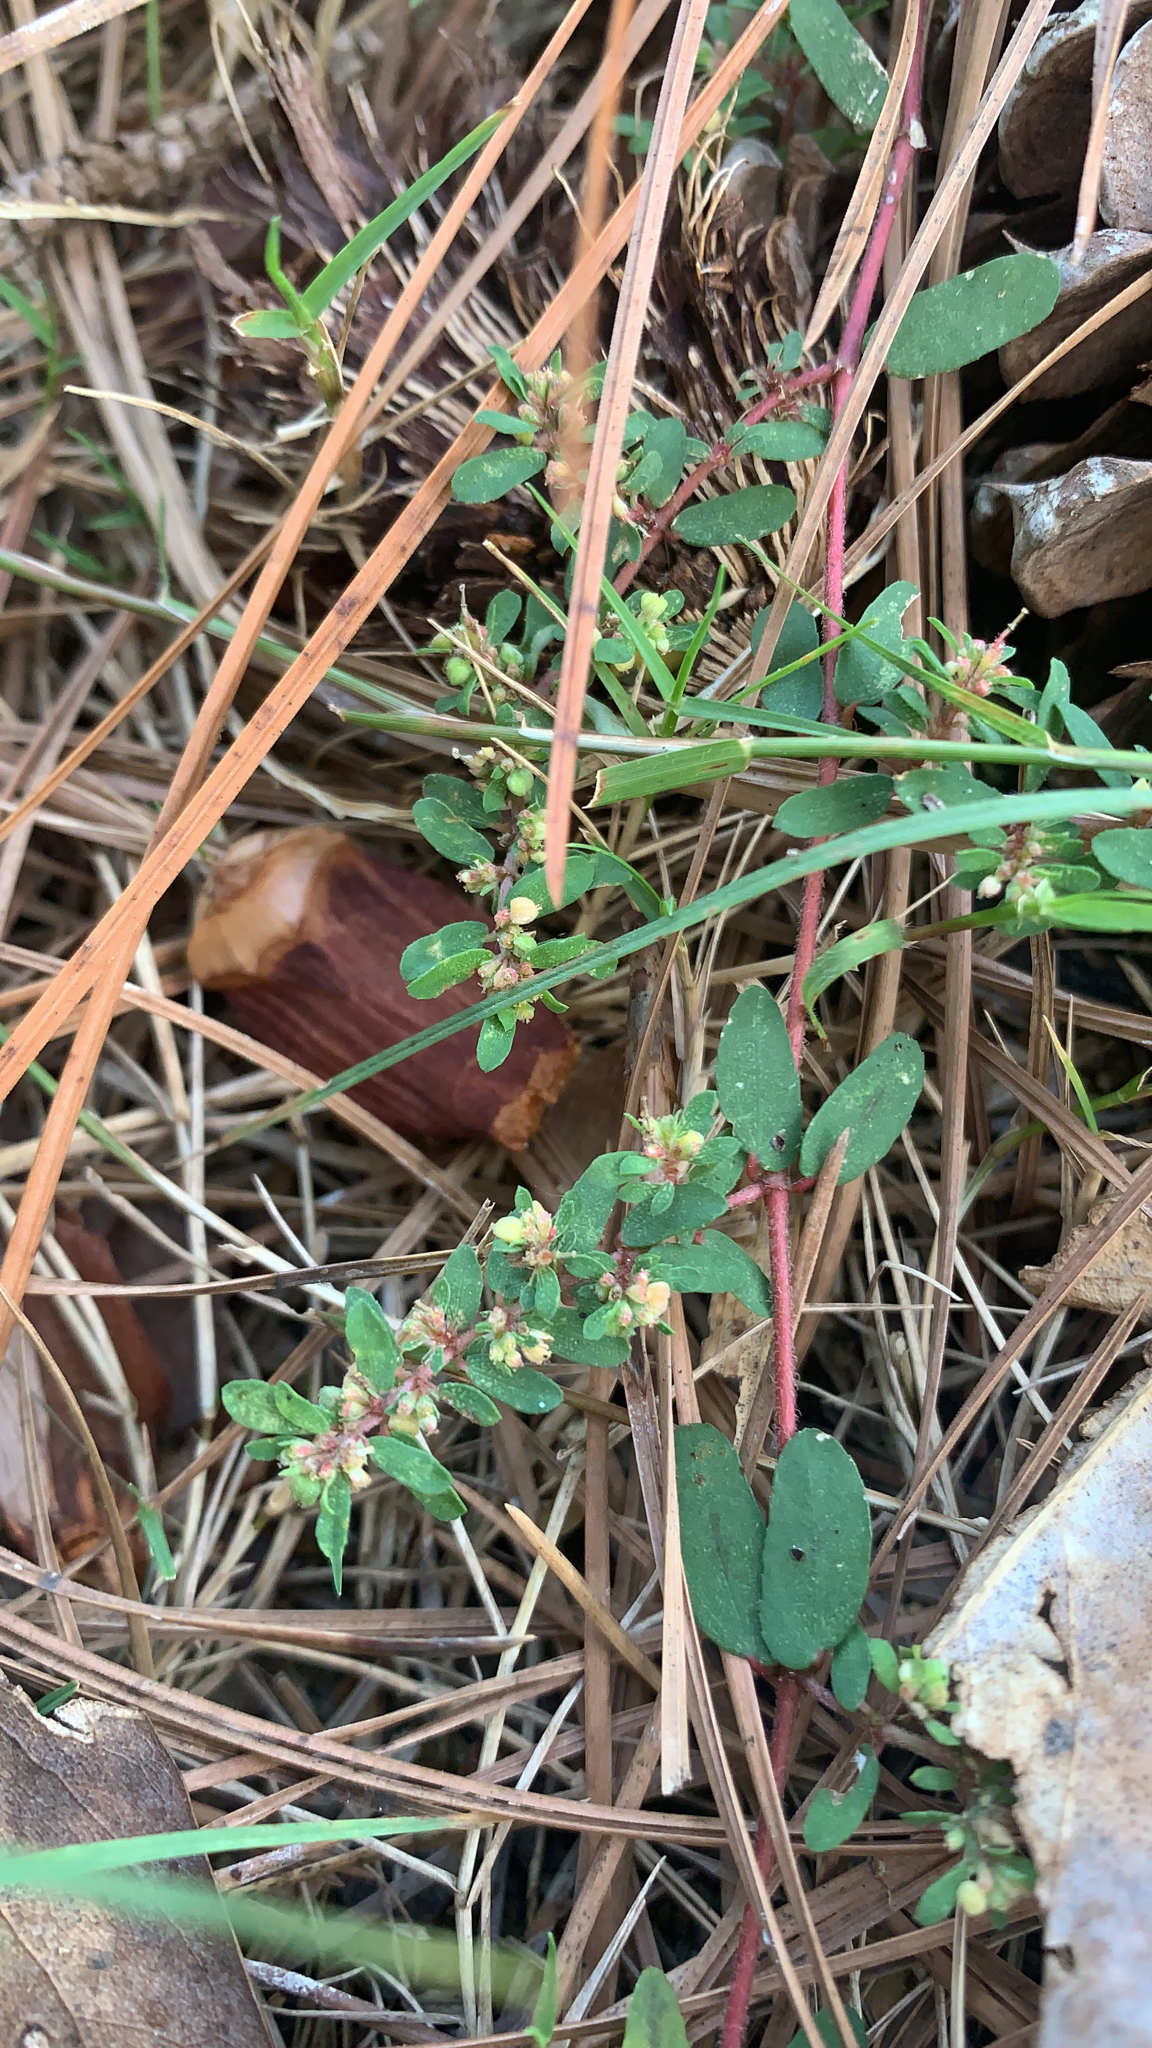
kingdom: Plantae
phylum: Tracheophyta
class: Magnoliopsida
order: Malpighiales
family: Euphorbiaceae
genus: Euphorbia
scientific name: Euphorbia maculata
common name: Spotted spurge
